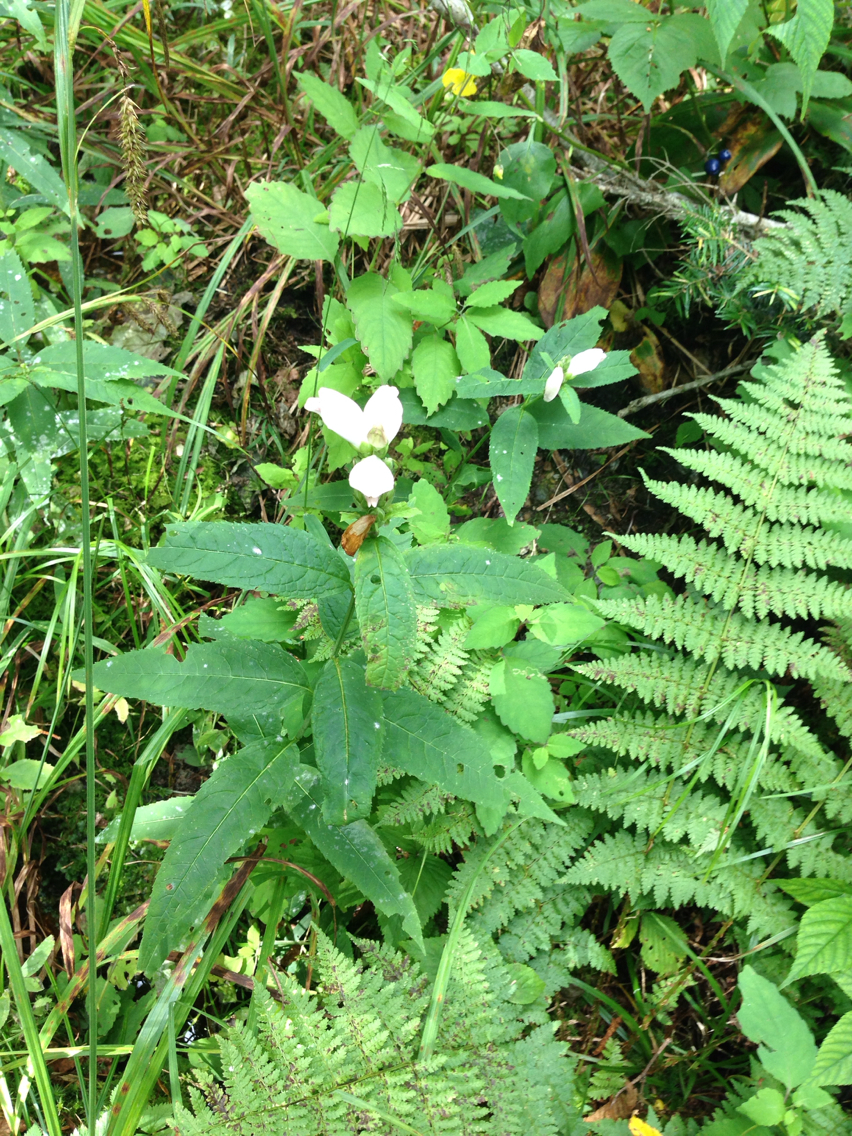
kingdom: Plantae
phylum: Tracheophyta
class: Magnoliopsida
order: Lamiales
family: Plantaginaceae
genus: Chelone
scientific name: Chelone glabra
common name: Snakehead
